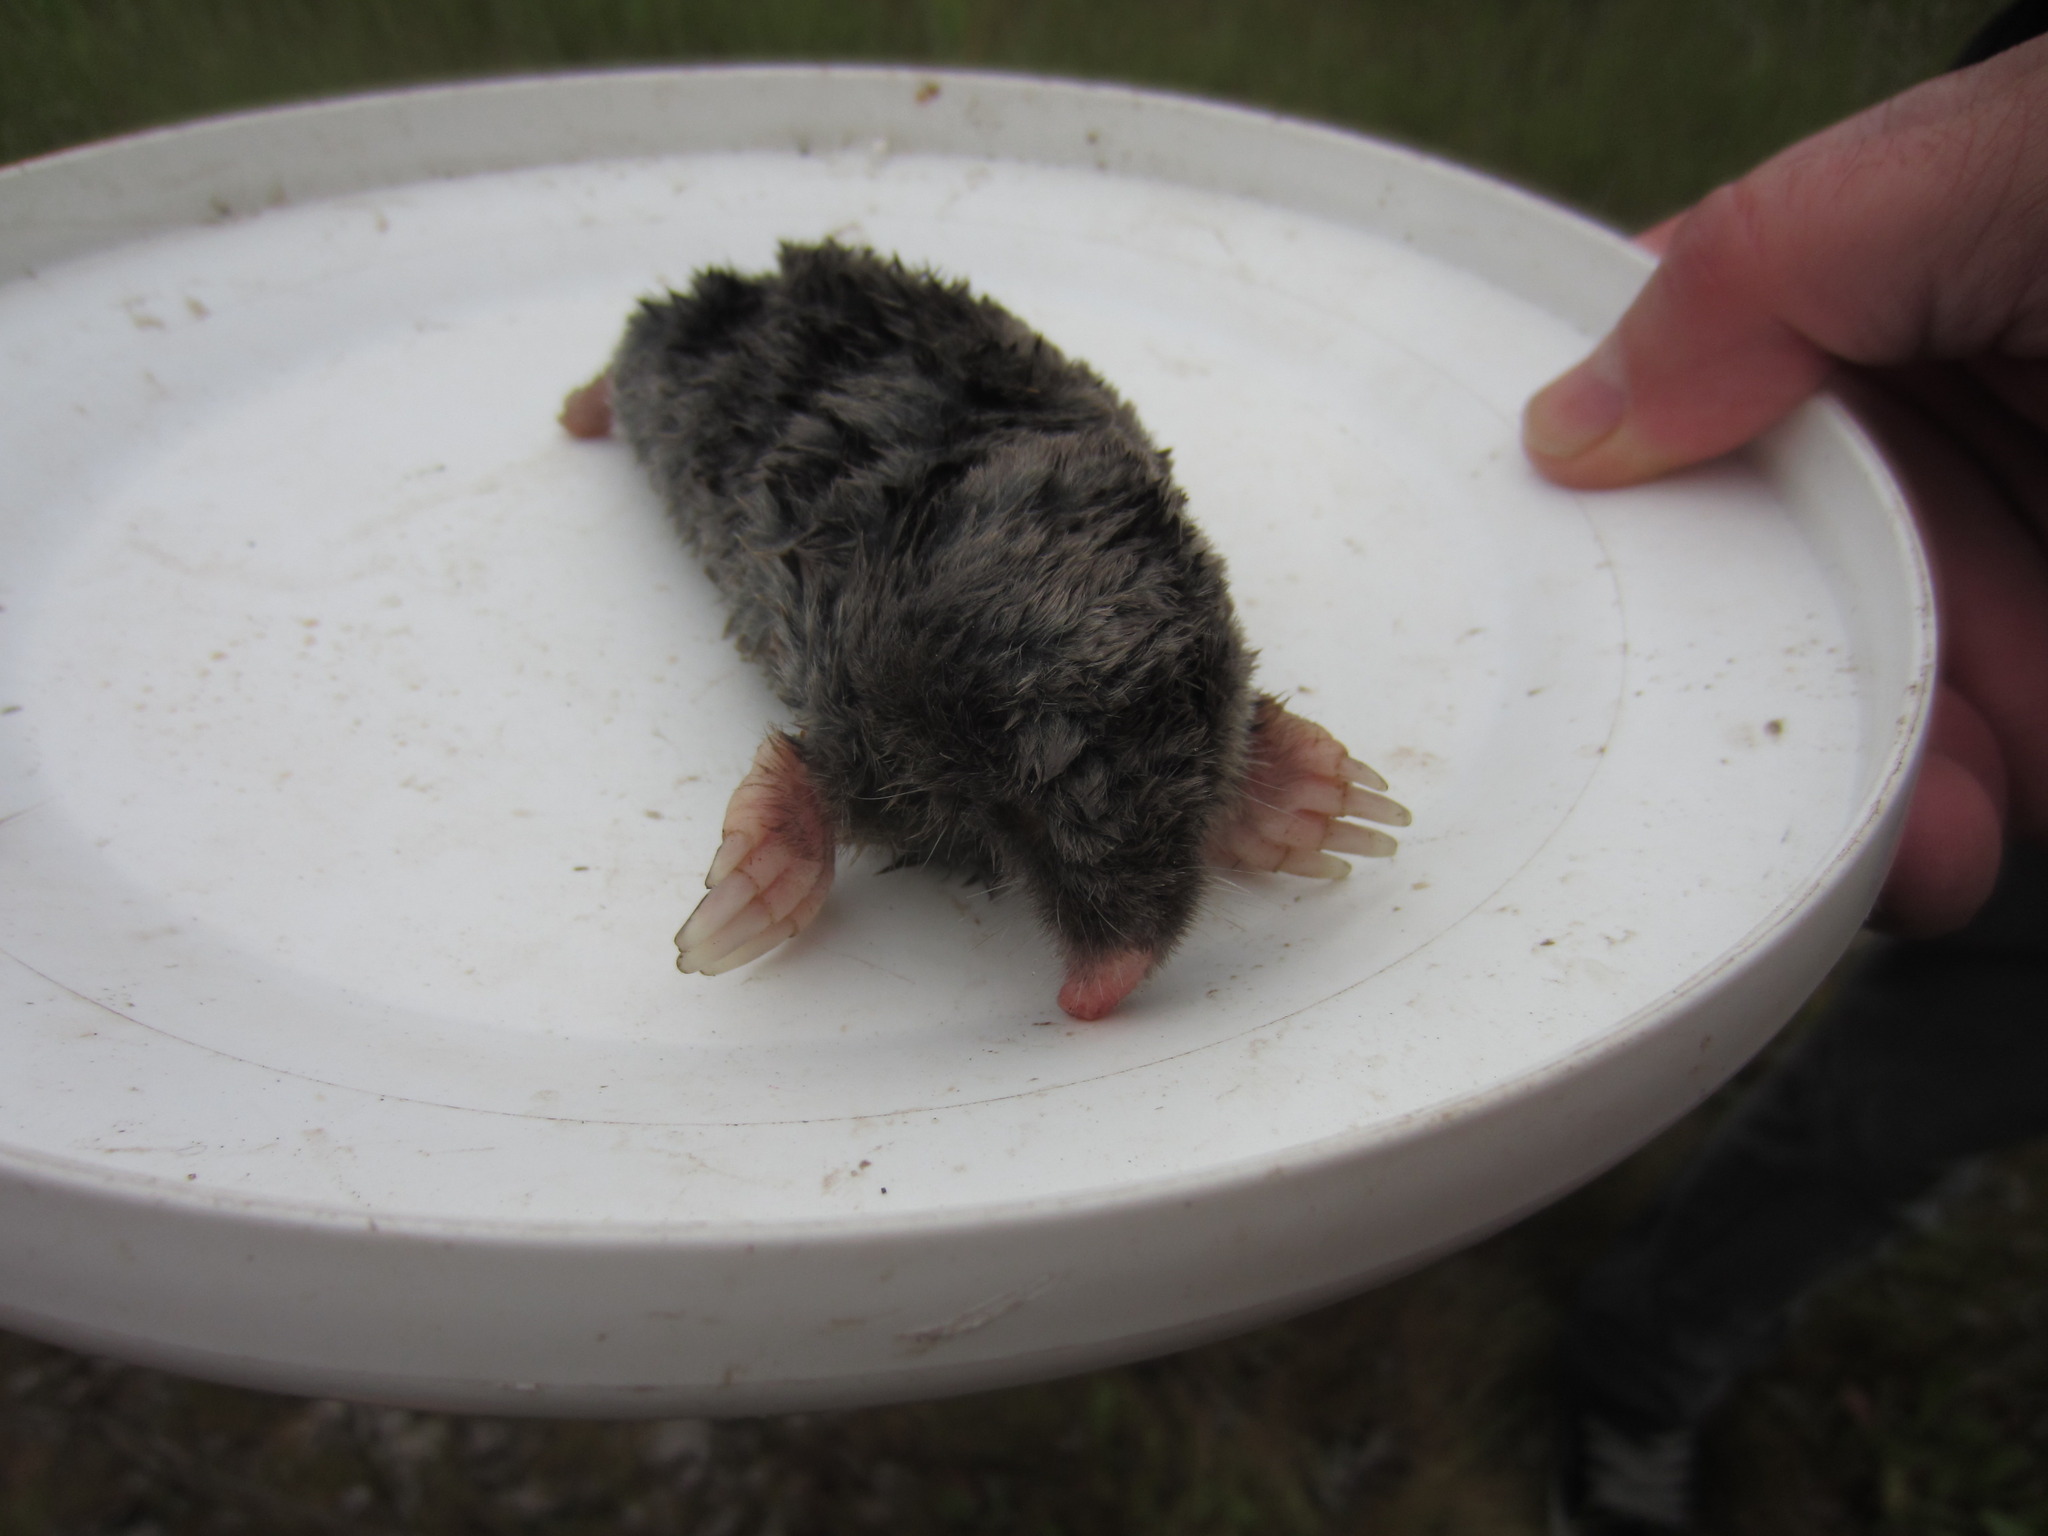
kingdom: Animalia
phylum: Chordata
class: Mammalia
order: Soricomorpha
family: Talpidae
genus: Scapanus
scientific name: Scapanus latimanus
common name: Broad-footed mole
